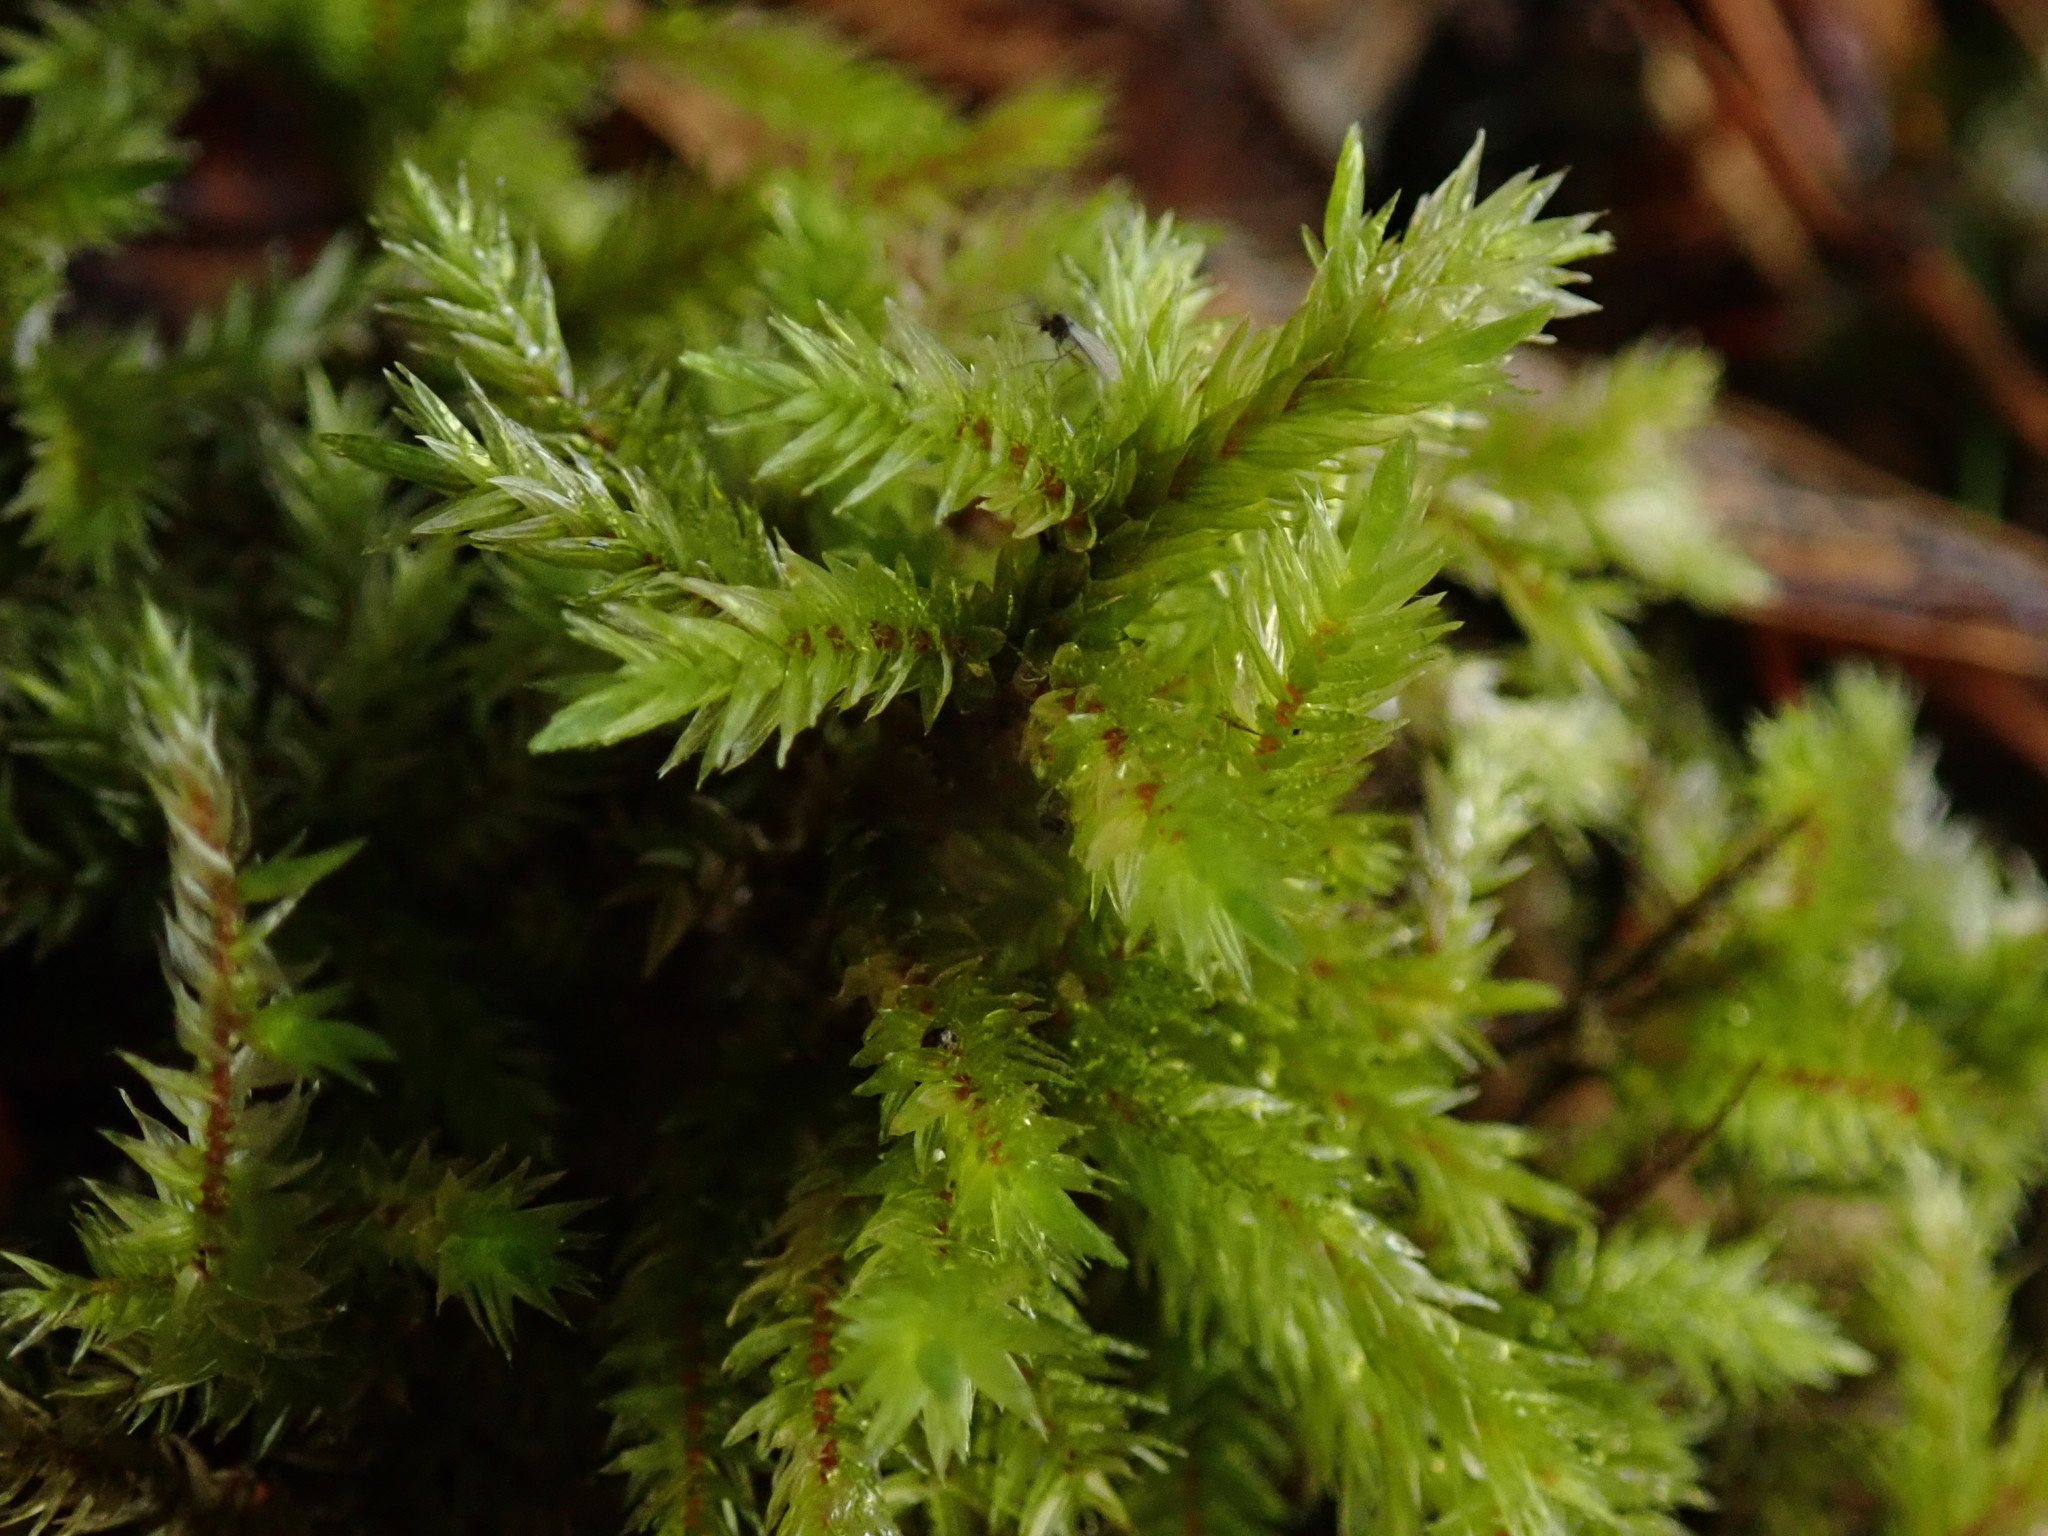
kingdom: Plantae
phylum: Bryophyta
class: Bryopsida
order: Hypnales
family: Climaciaceae
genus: Climacium
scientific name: Climacium dendroides
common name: Northern tree moss
